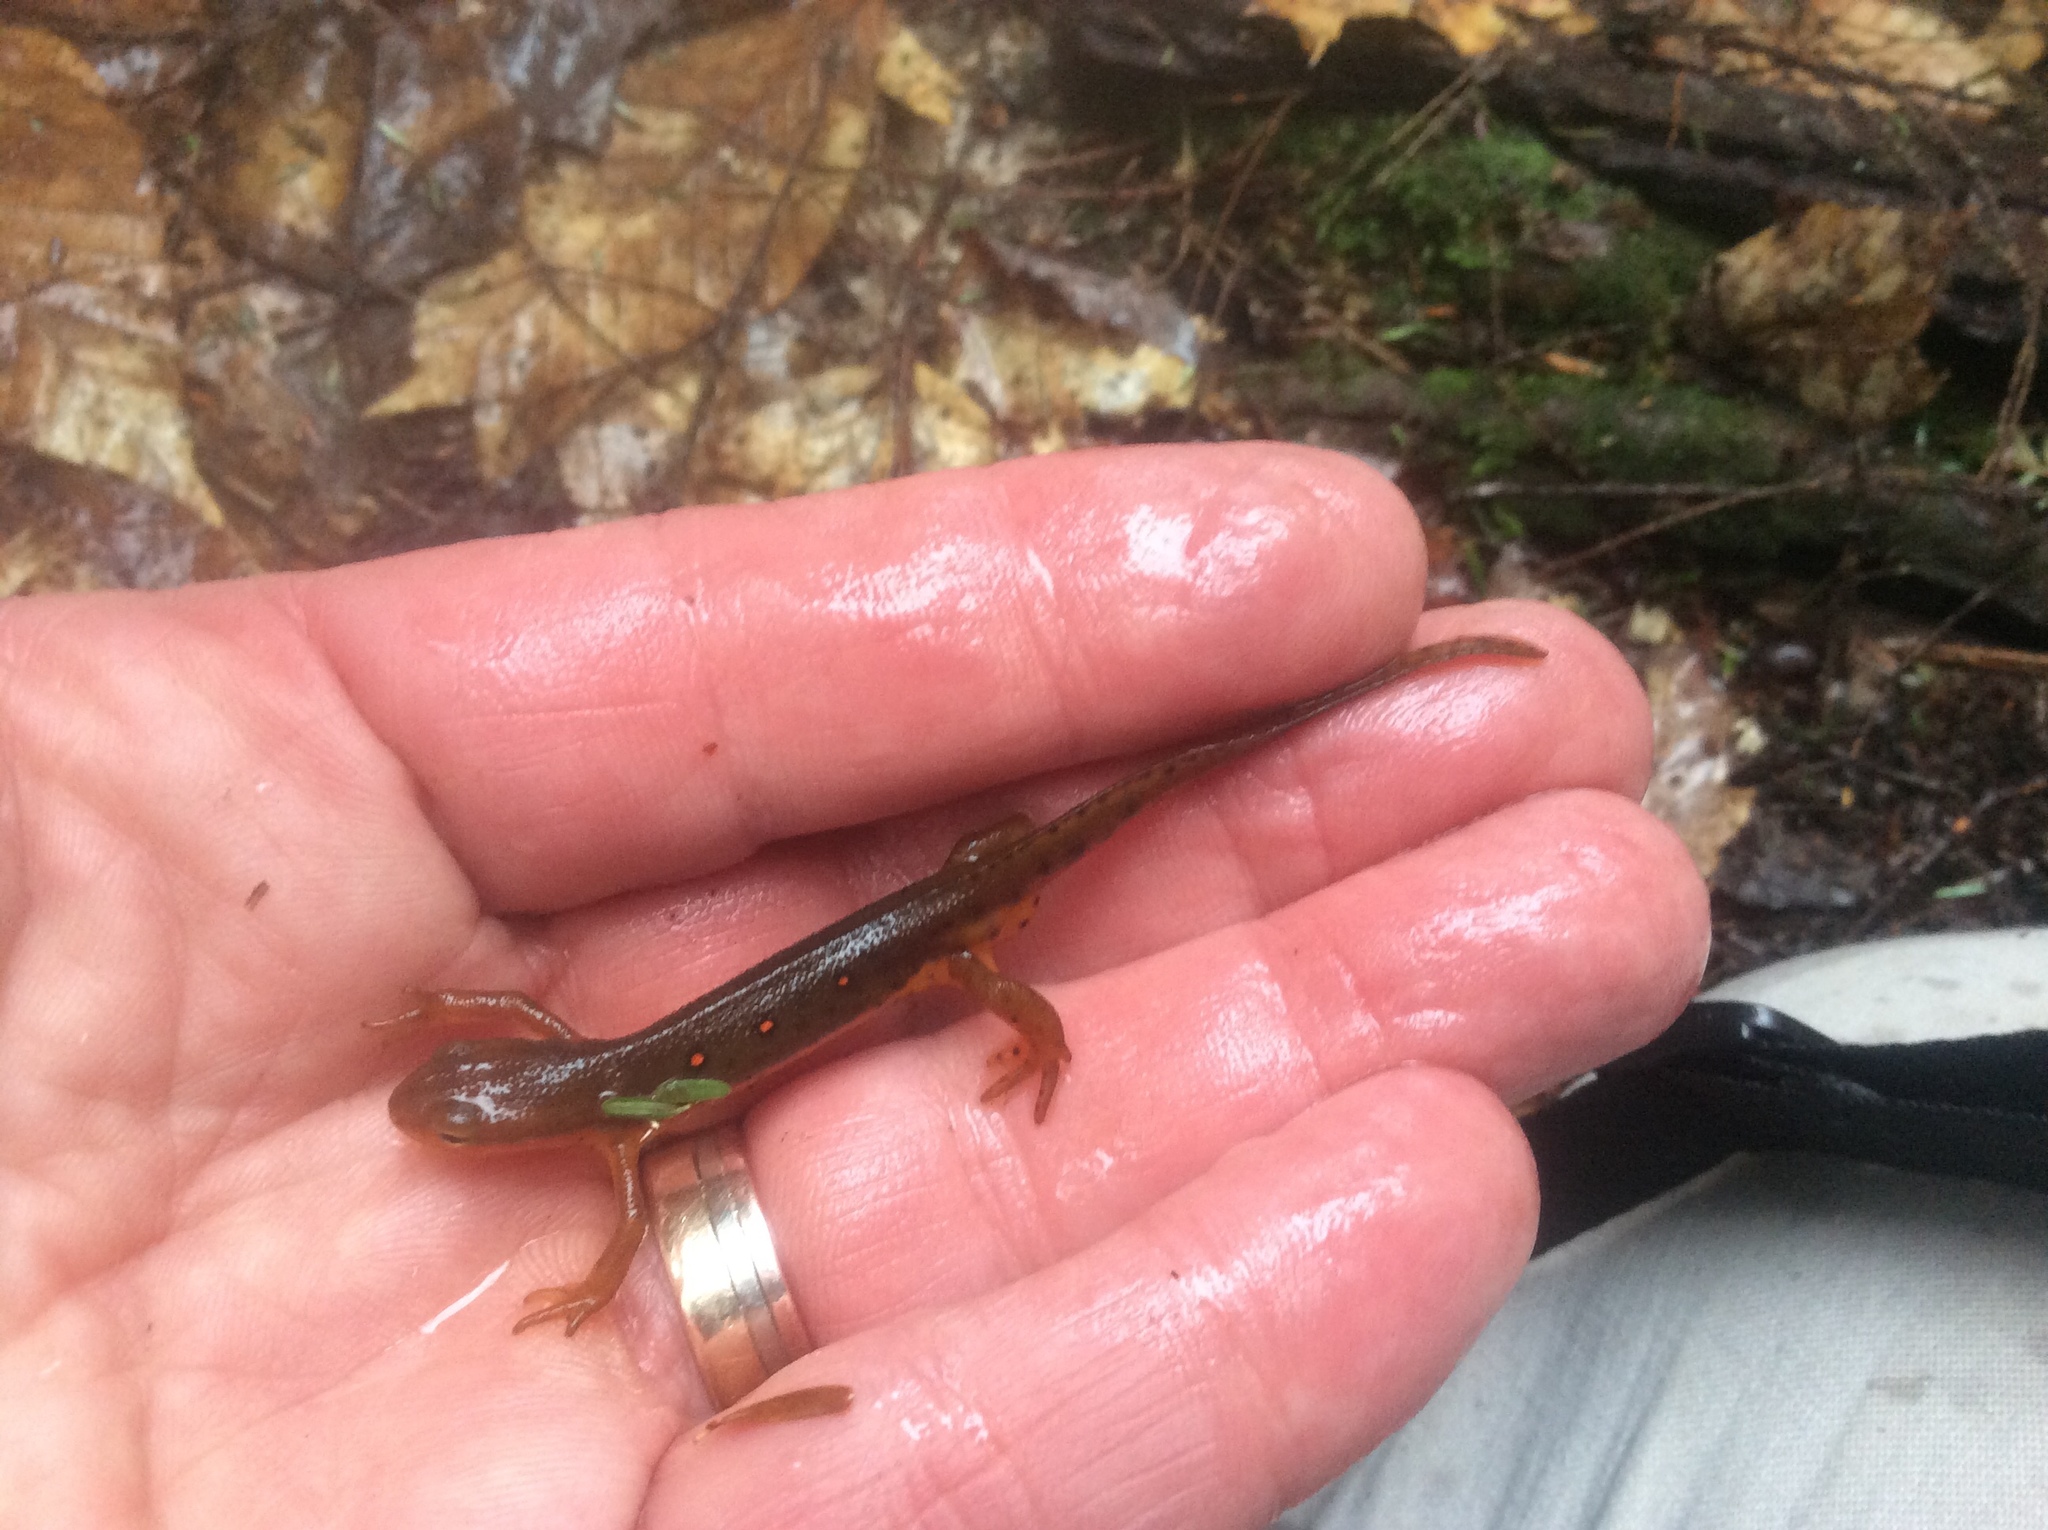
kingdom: Animalia
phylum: Chordata
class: Amphibia
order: Caudata
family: Salamandridae
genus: Notophthalmus
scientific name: Notophthalmus viridescens
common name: Eastern newt
